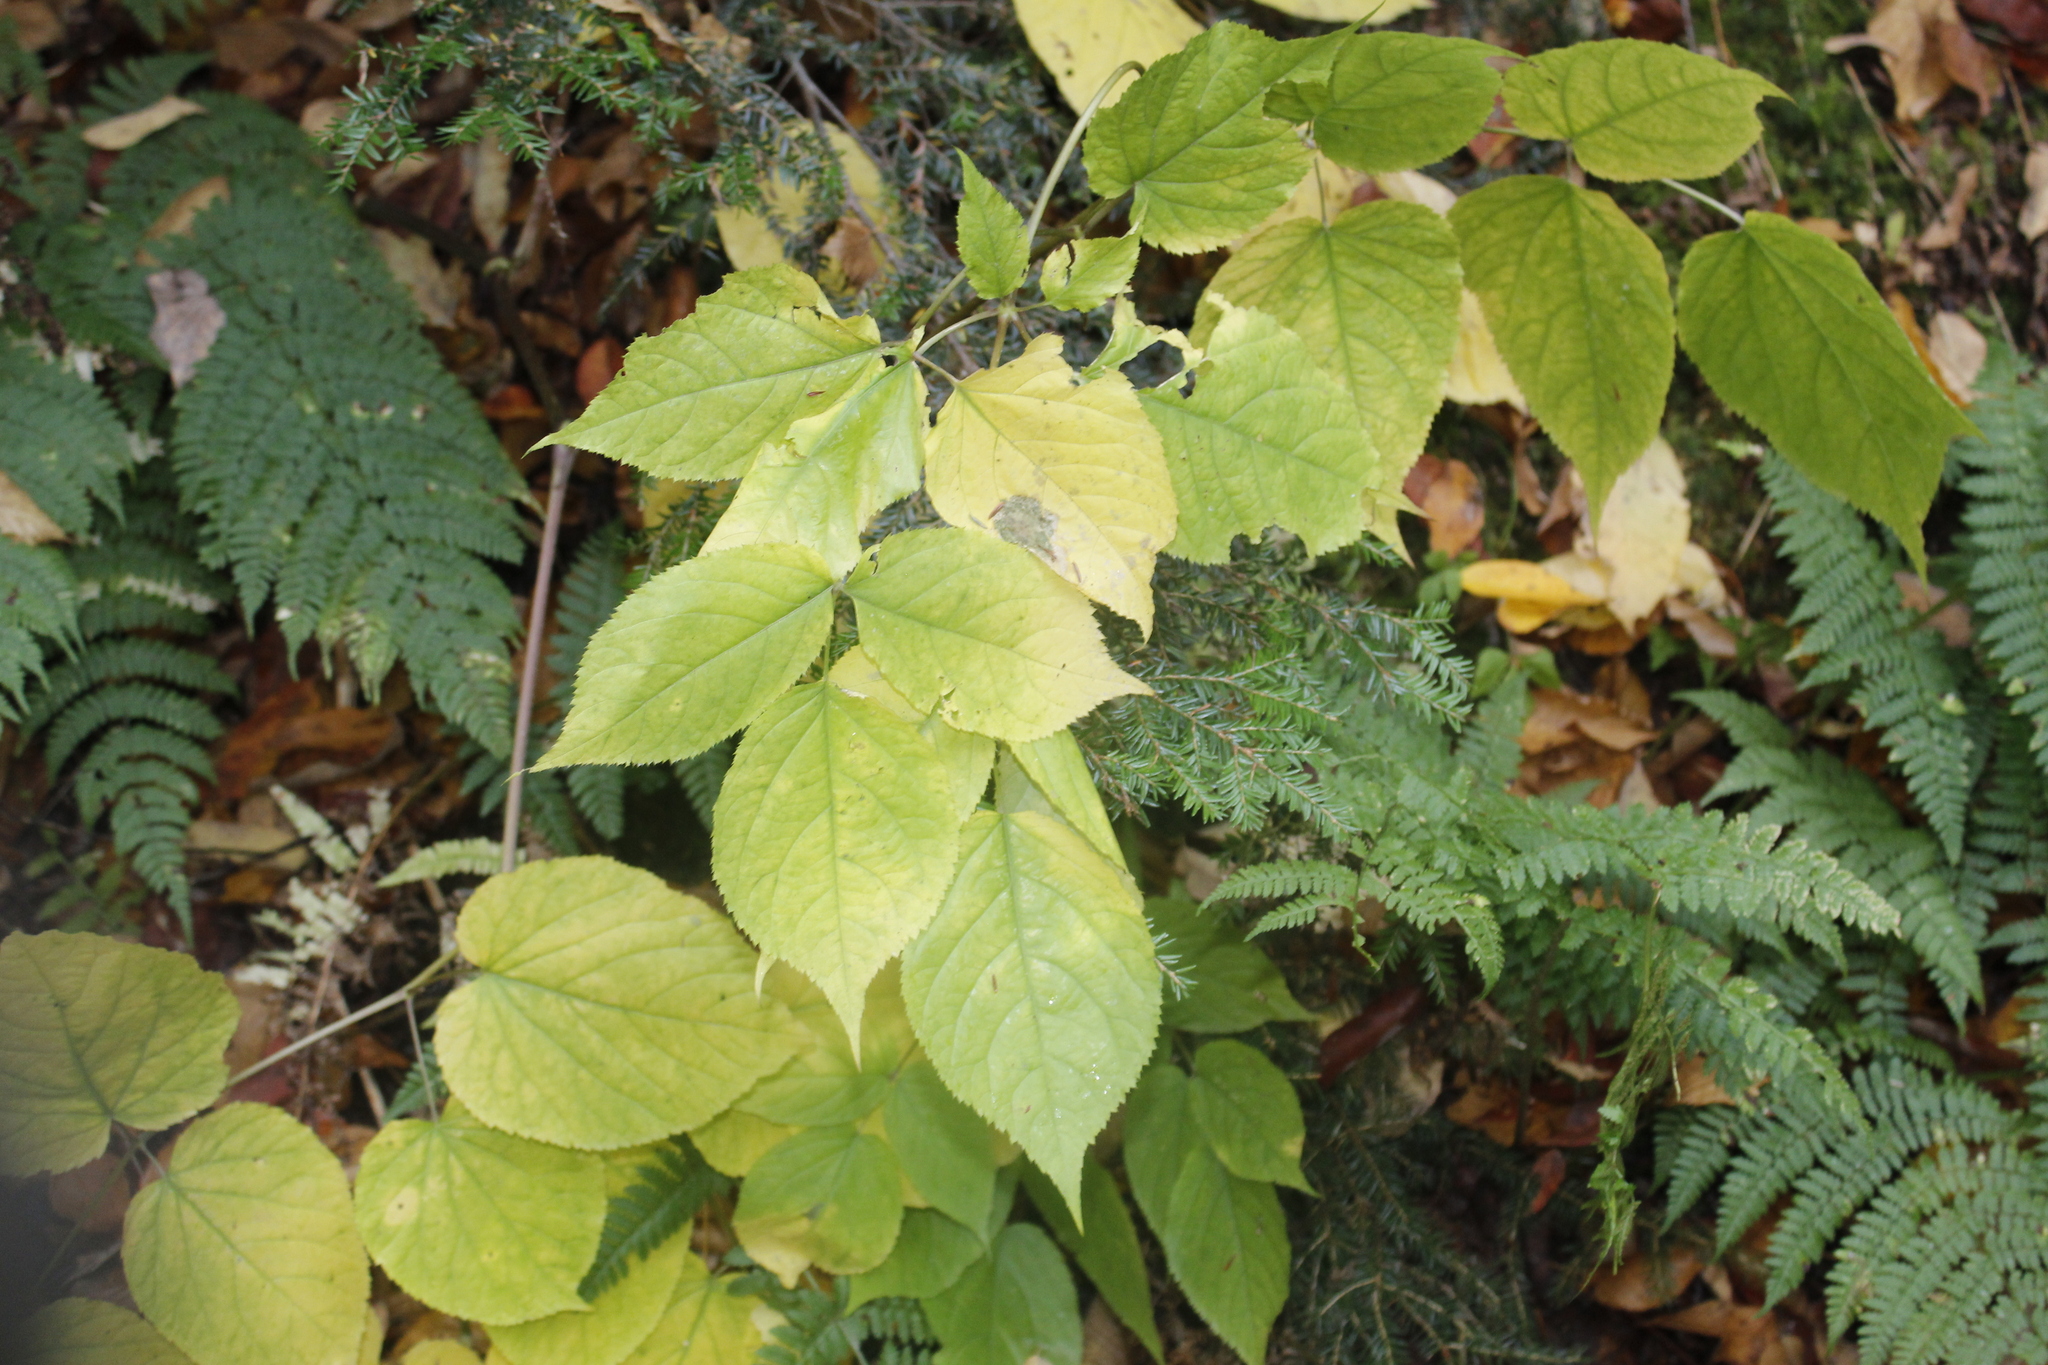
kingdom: Plantae
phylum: Tracheophyta
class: Magnoliopsida
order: Apiales
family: Araliaceae
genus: Aralia
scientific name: Aralia racemosa
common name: American-spikenard
